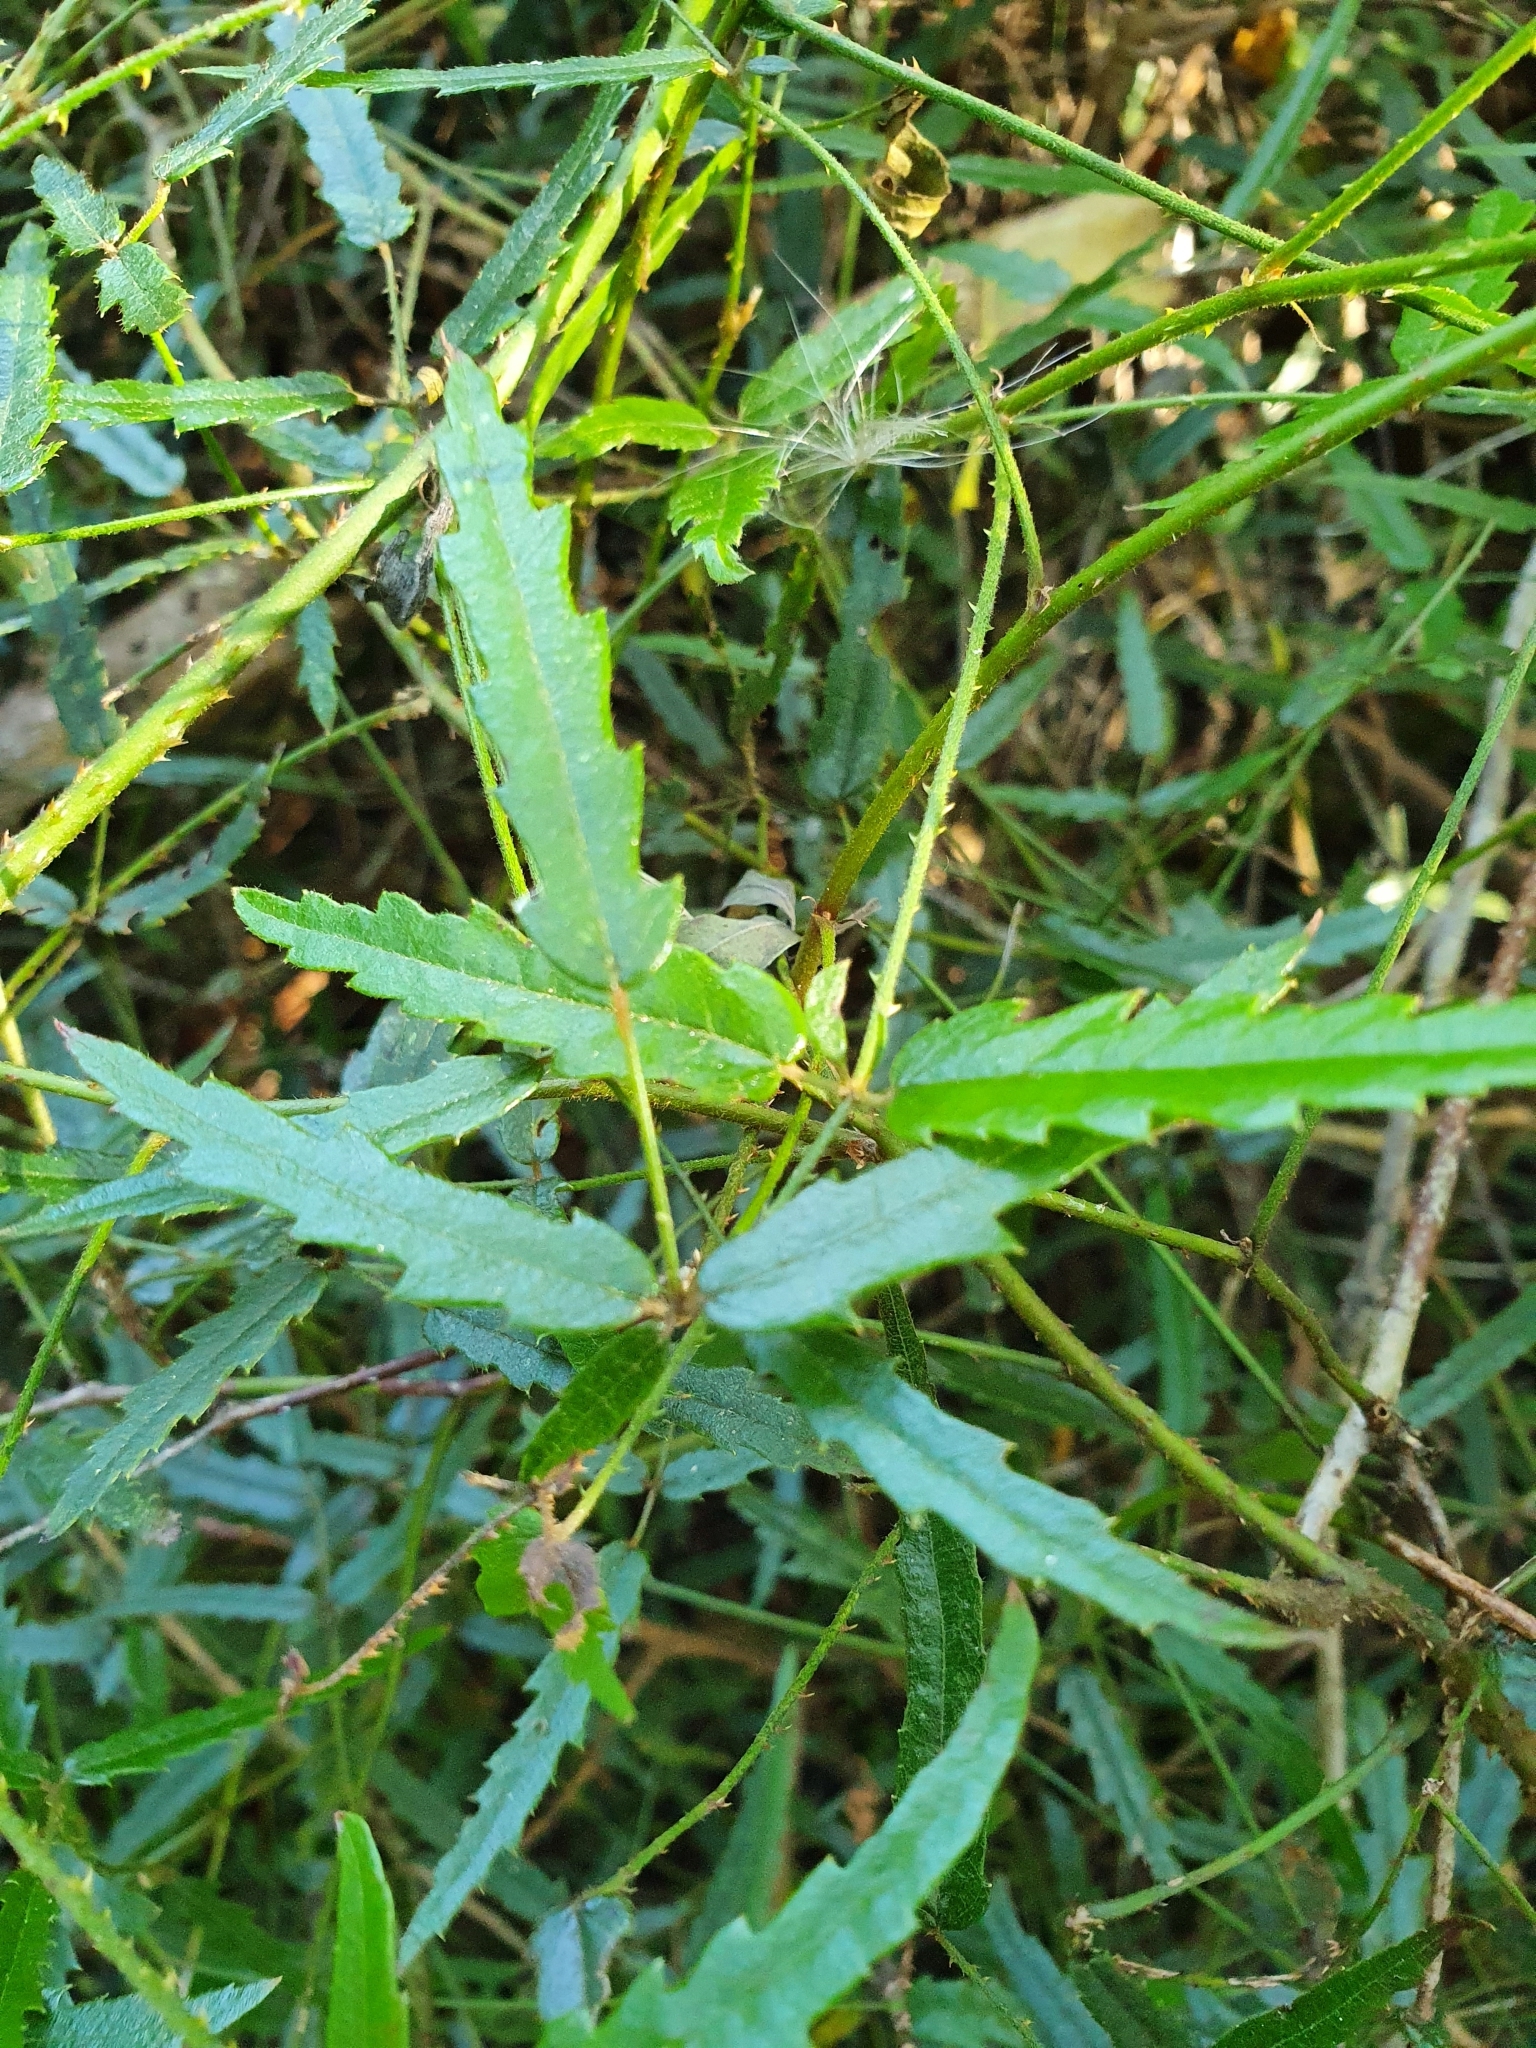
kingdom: Plantae
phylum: Tracheophyta
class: Magnoliopsida
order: Rosales
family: Rosaceae
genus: Rubus
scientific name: Rubus schmidelioides
